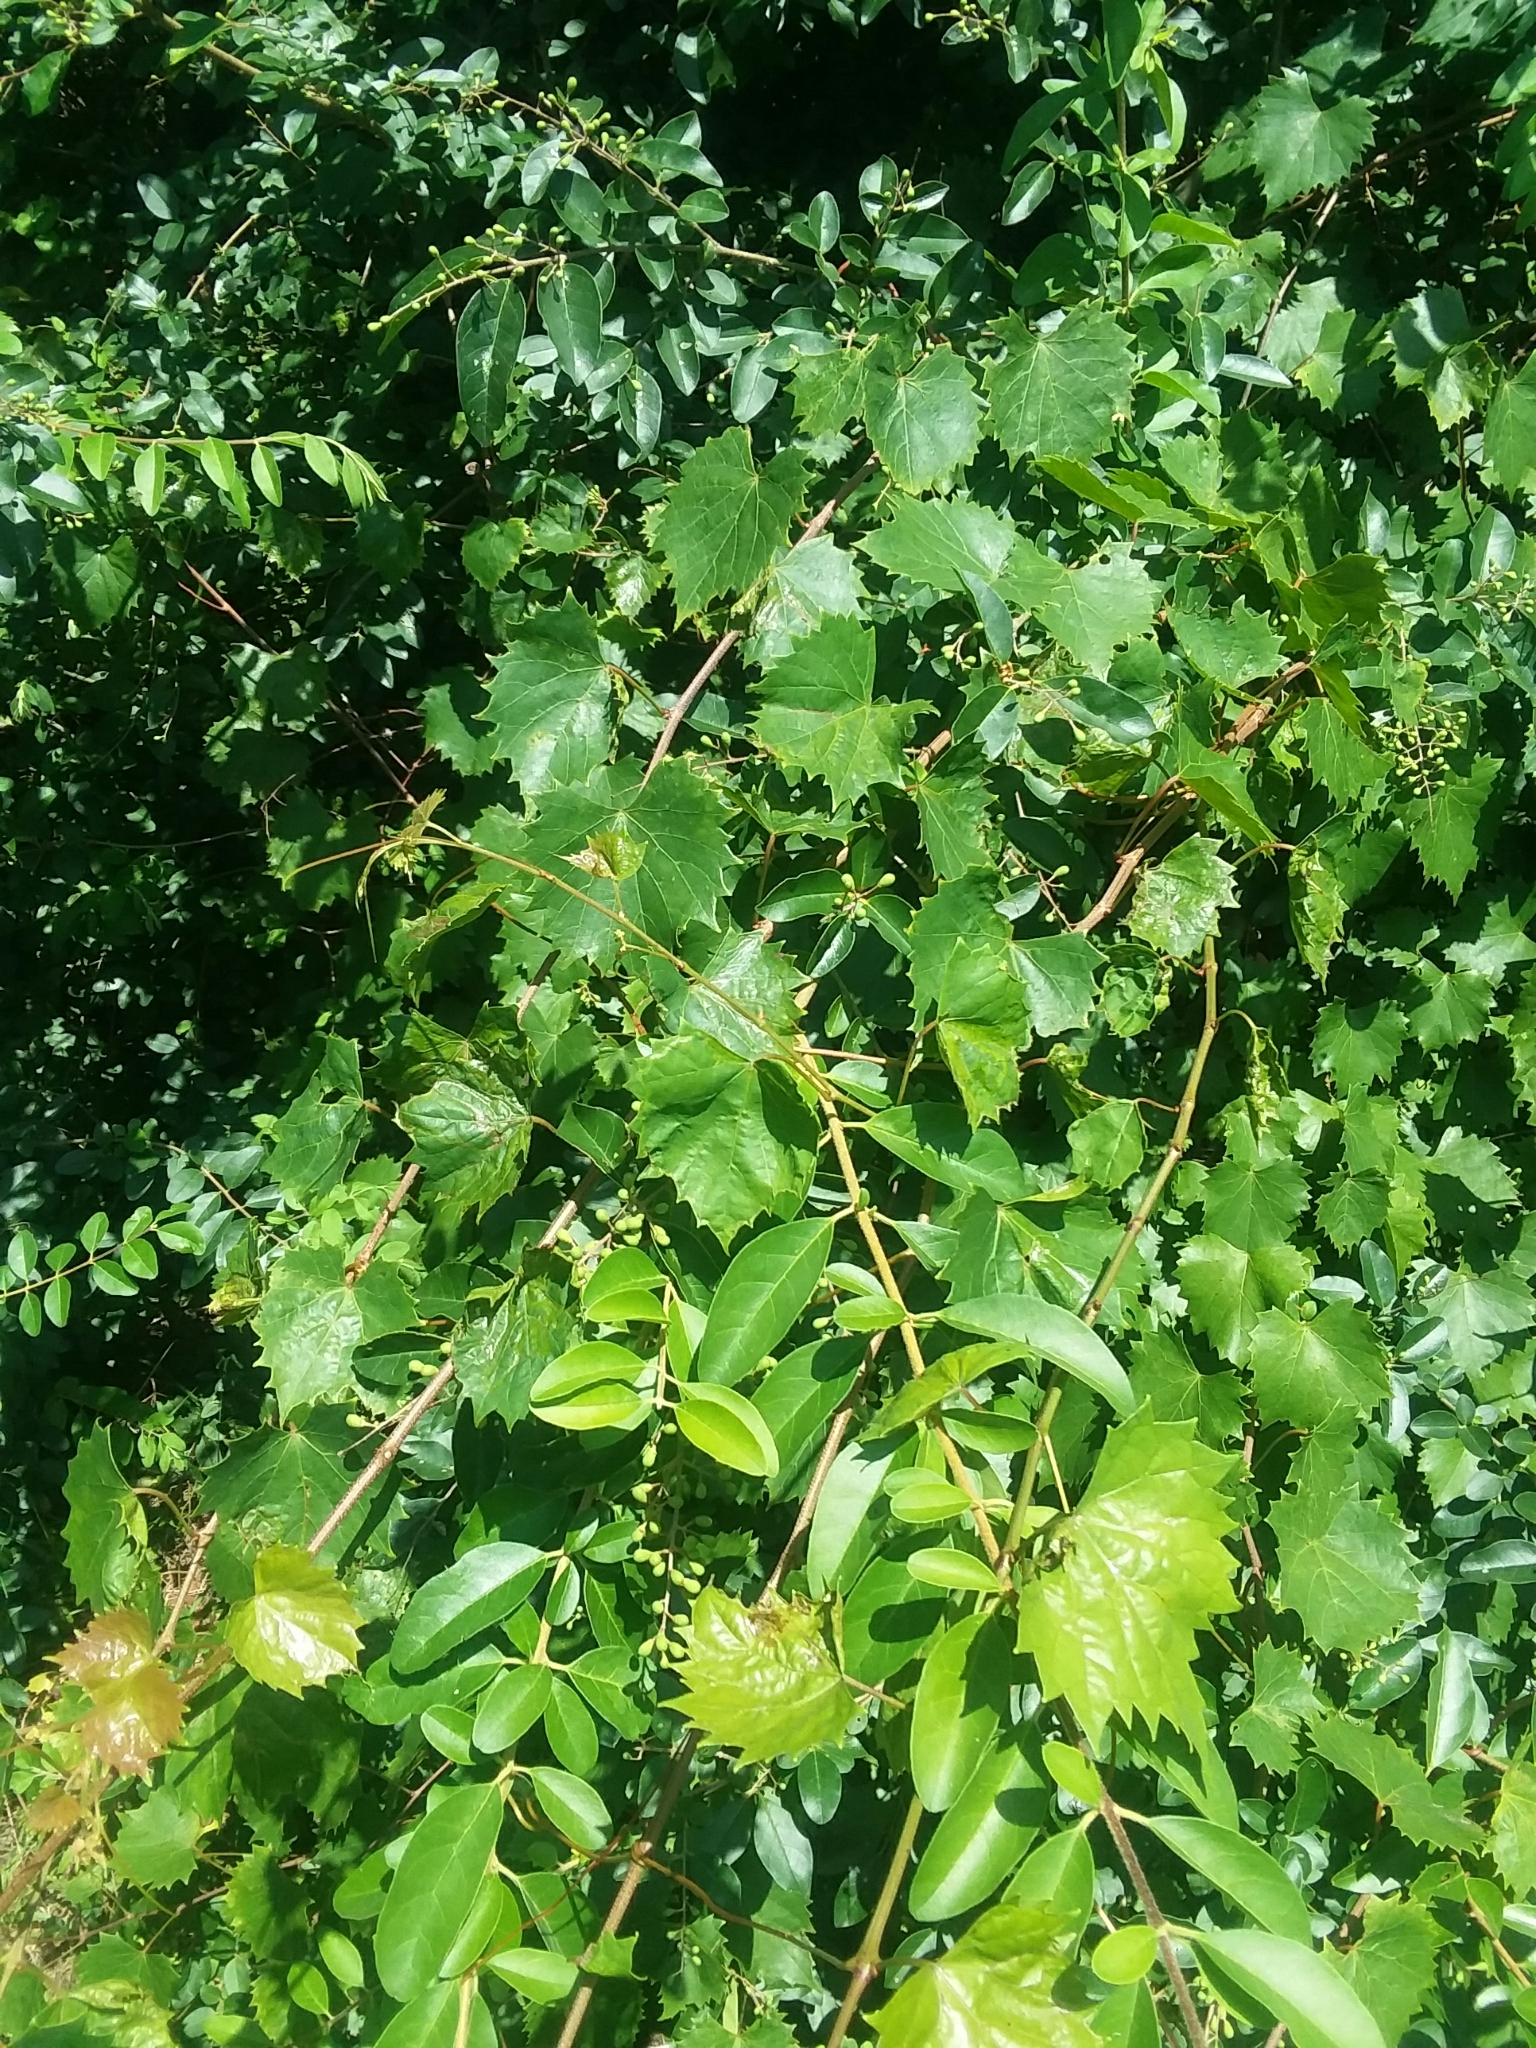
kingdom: Plantae
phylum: Tracheophyta
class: Magnoliopsida
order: Vitales
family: Vitaceae
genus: Vitis
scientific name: Vitis rotundifolia
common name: Muscadine grape
